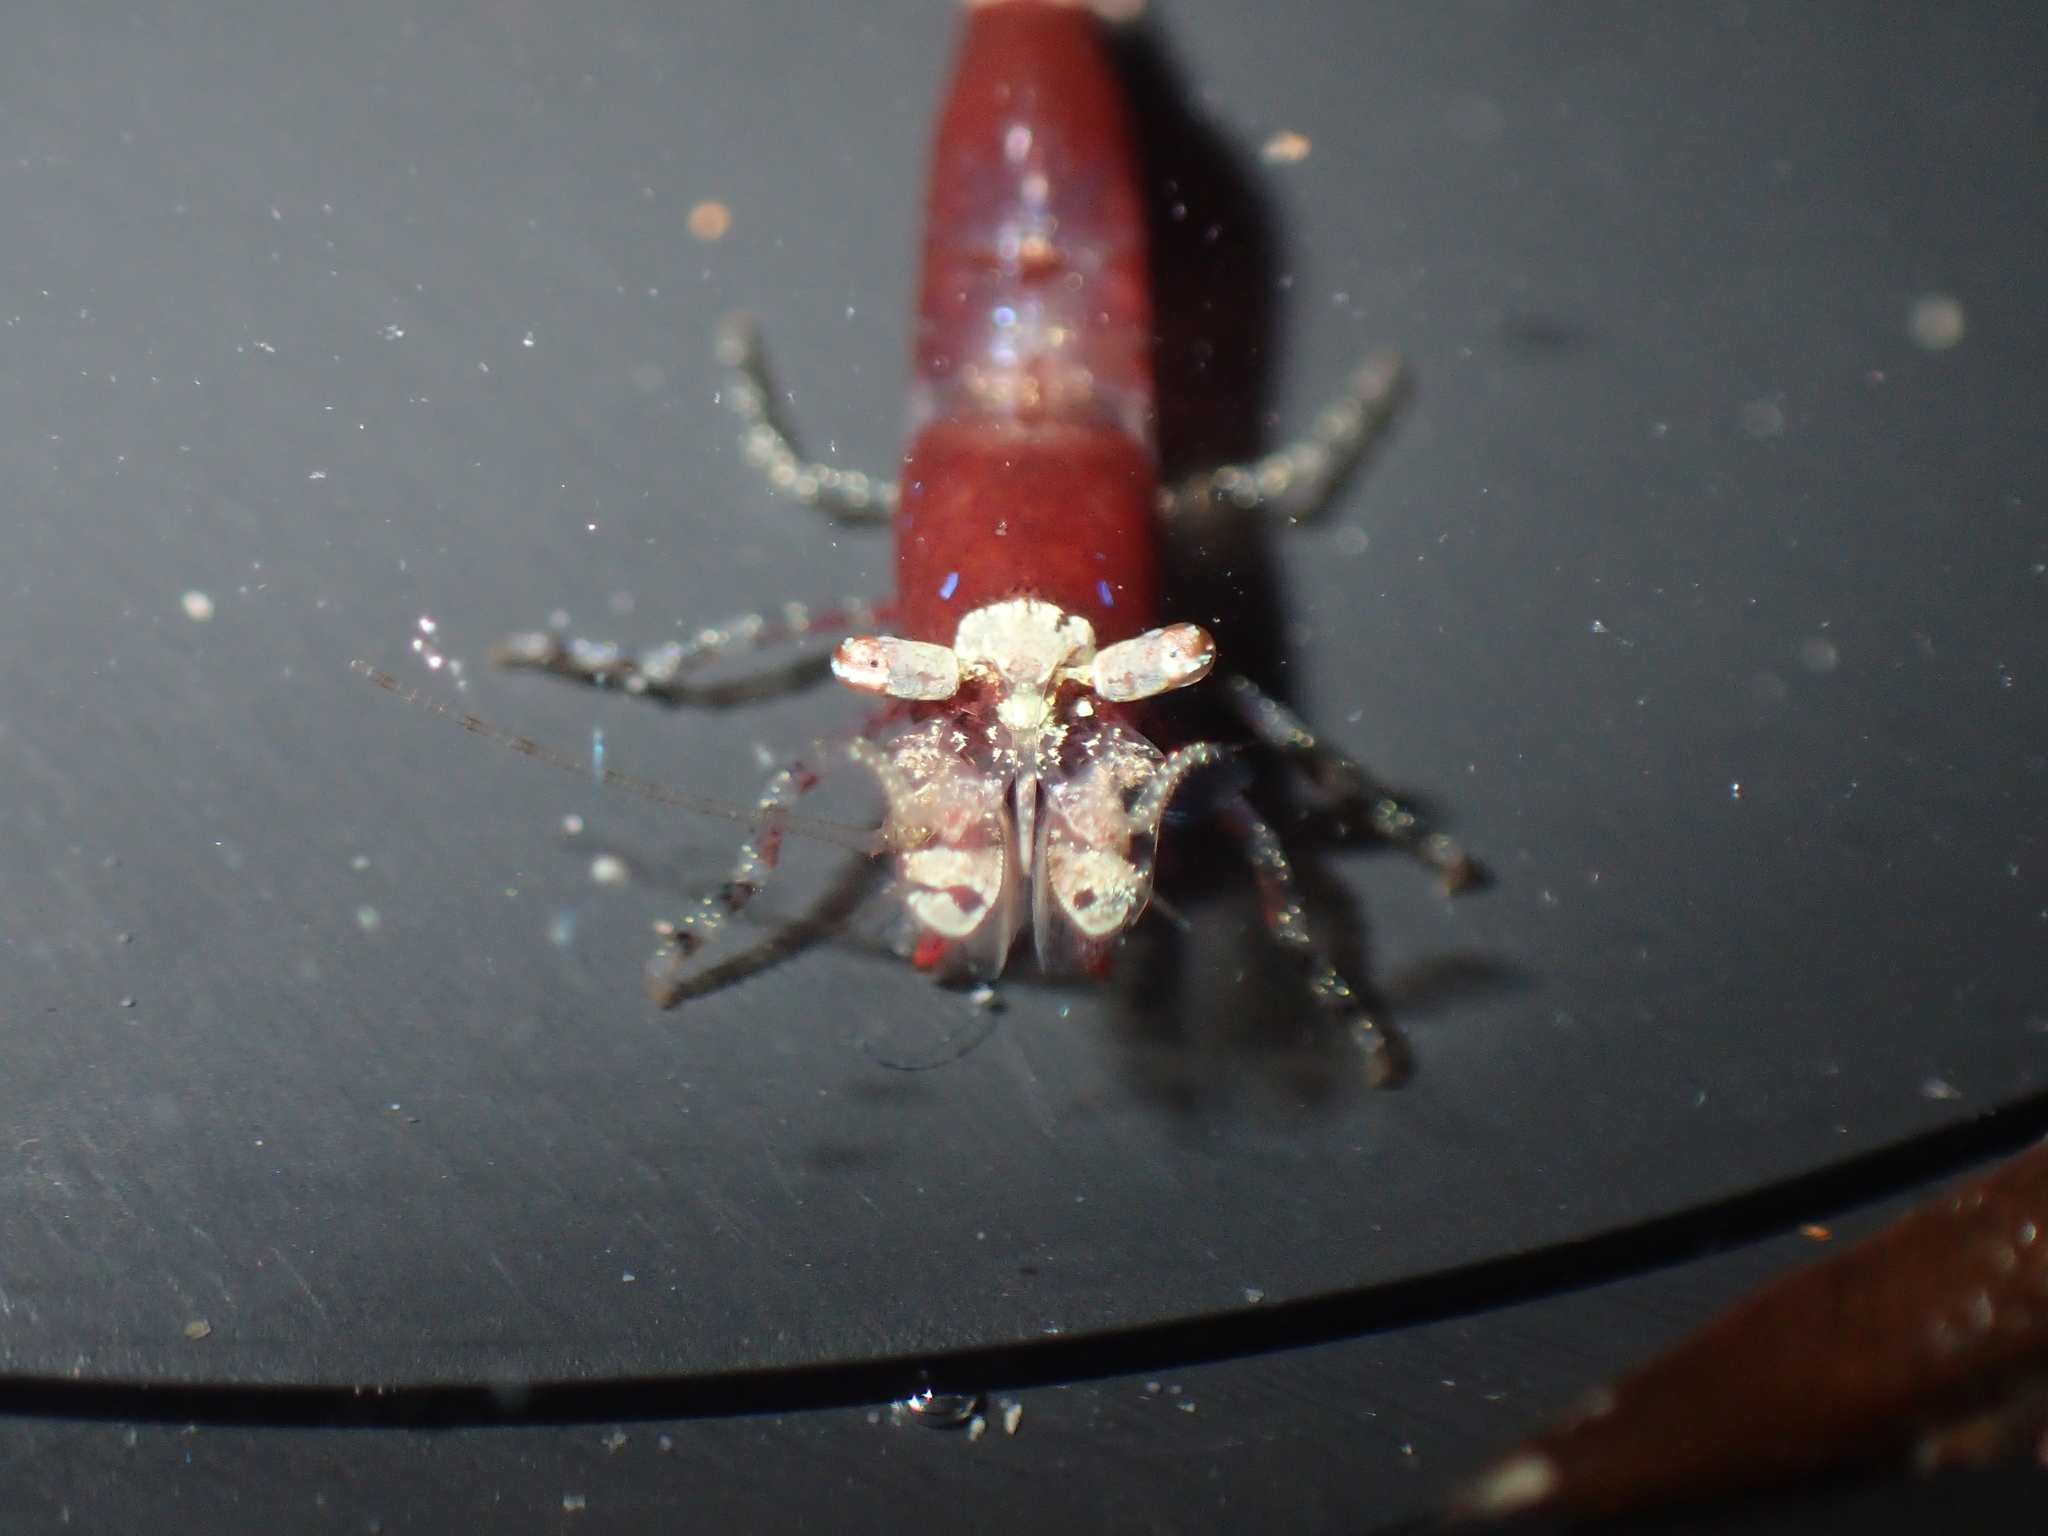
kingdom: Animalia
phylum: Arthropoda
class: Malacostraca
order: Decapoda
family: Hippolytidae
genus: Hippolyte
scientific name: Hippolyte varians
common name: Chamaeleon prawn
